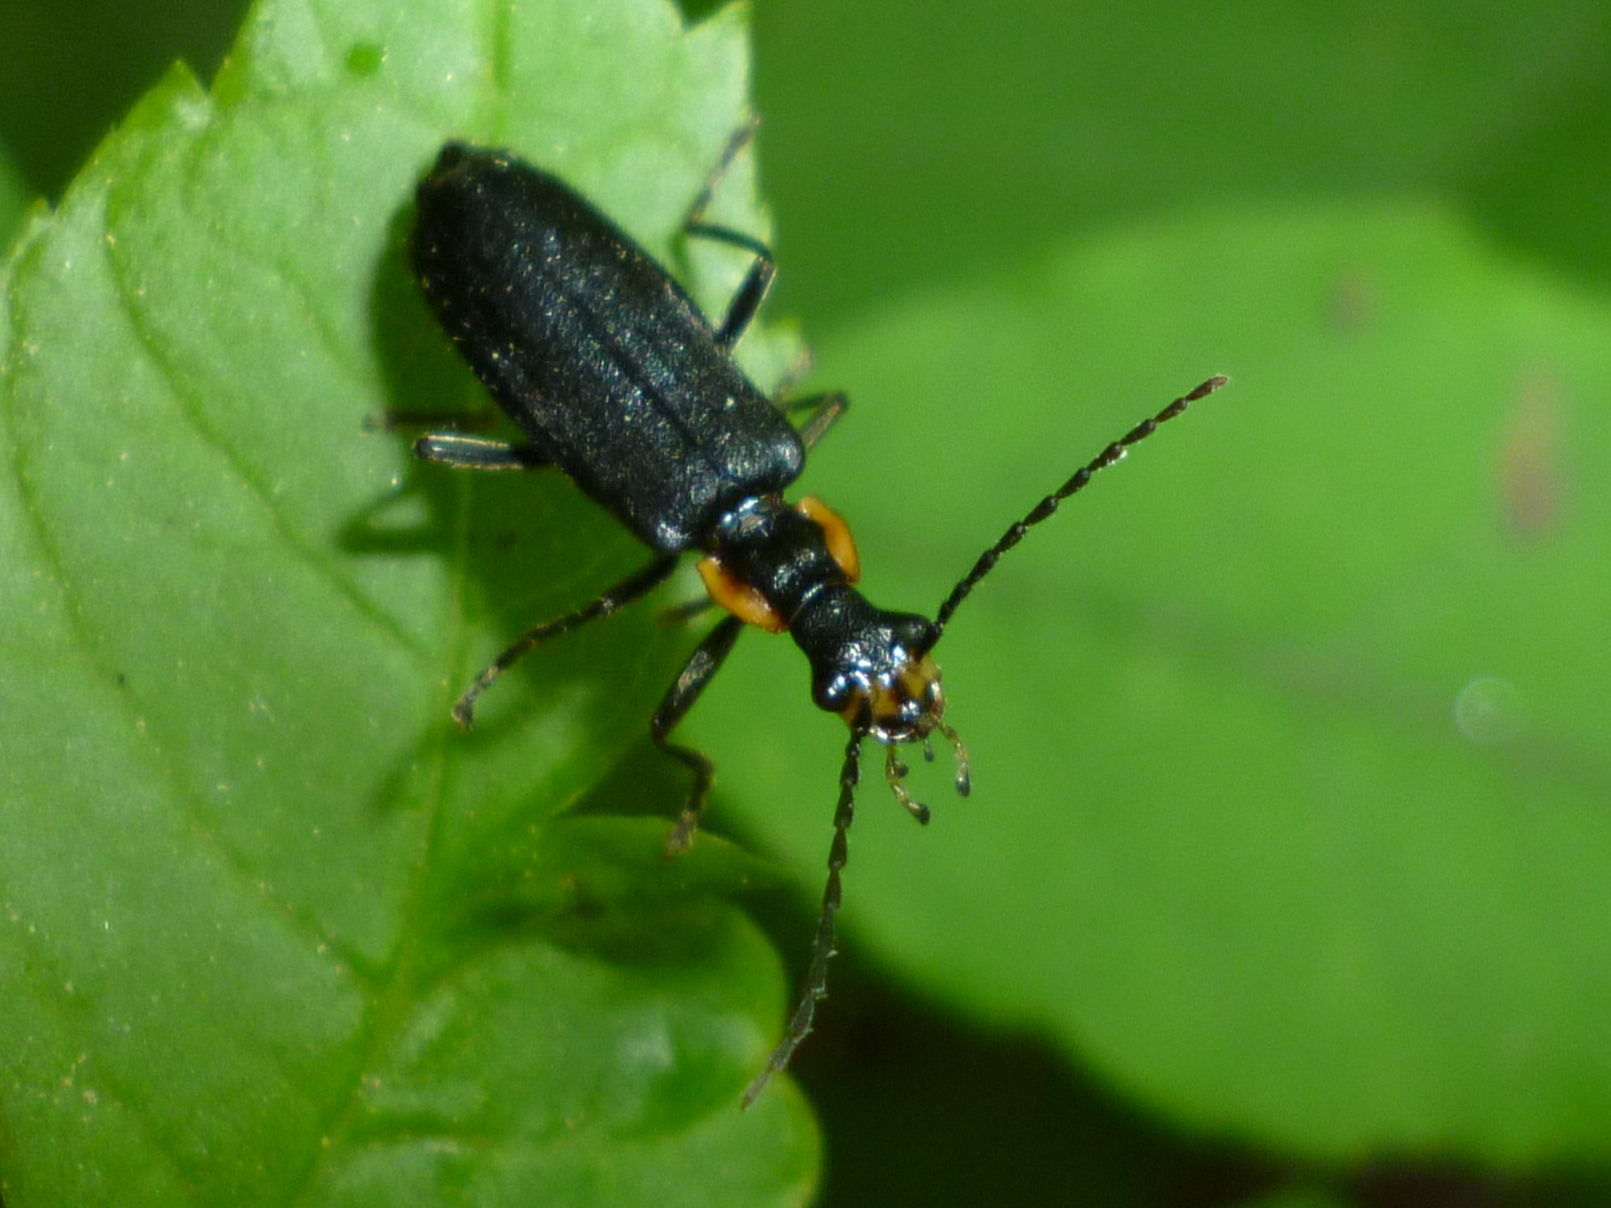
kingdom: Animalia
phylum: Arthropoda
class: Insecta
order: Coleoptera
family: Cantharidae
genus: Podabrus
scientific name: Podabrus frater
